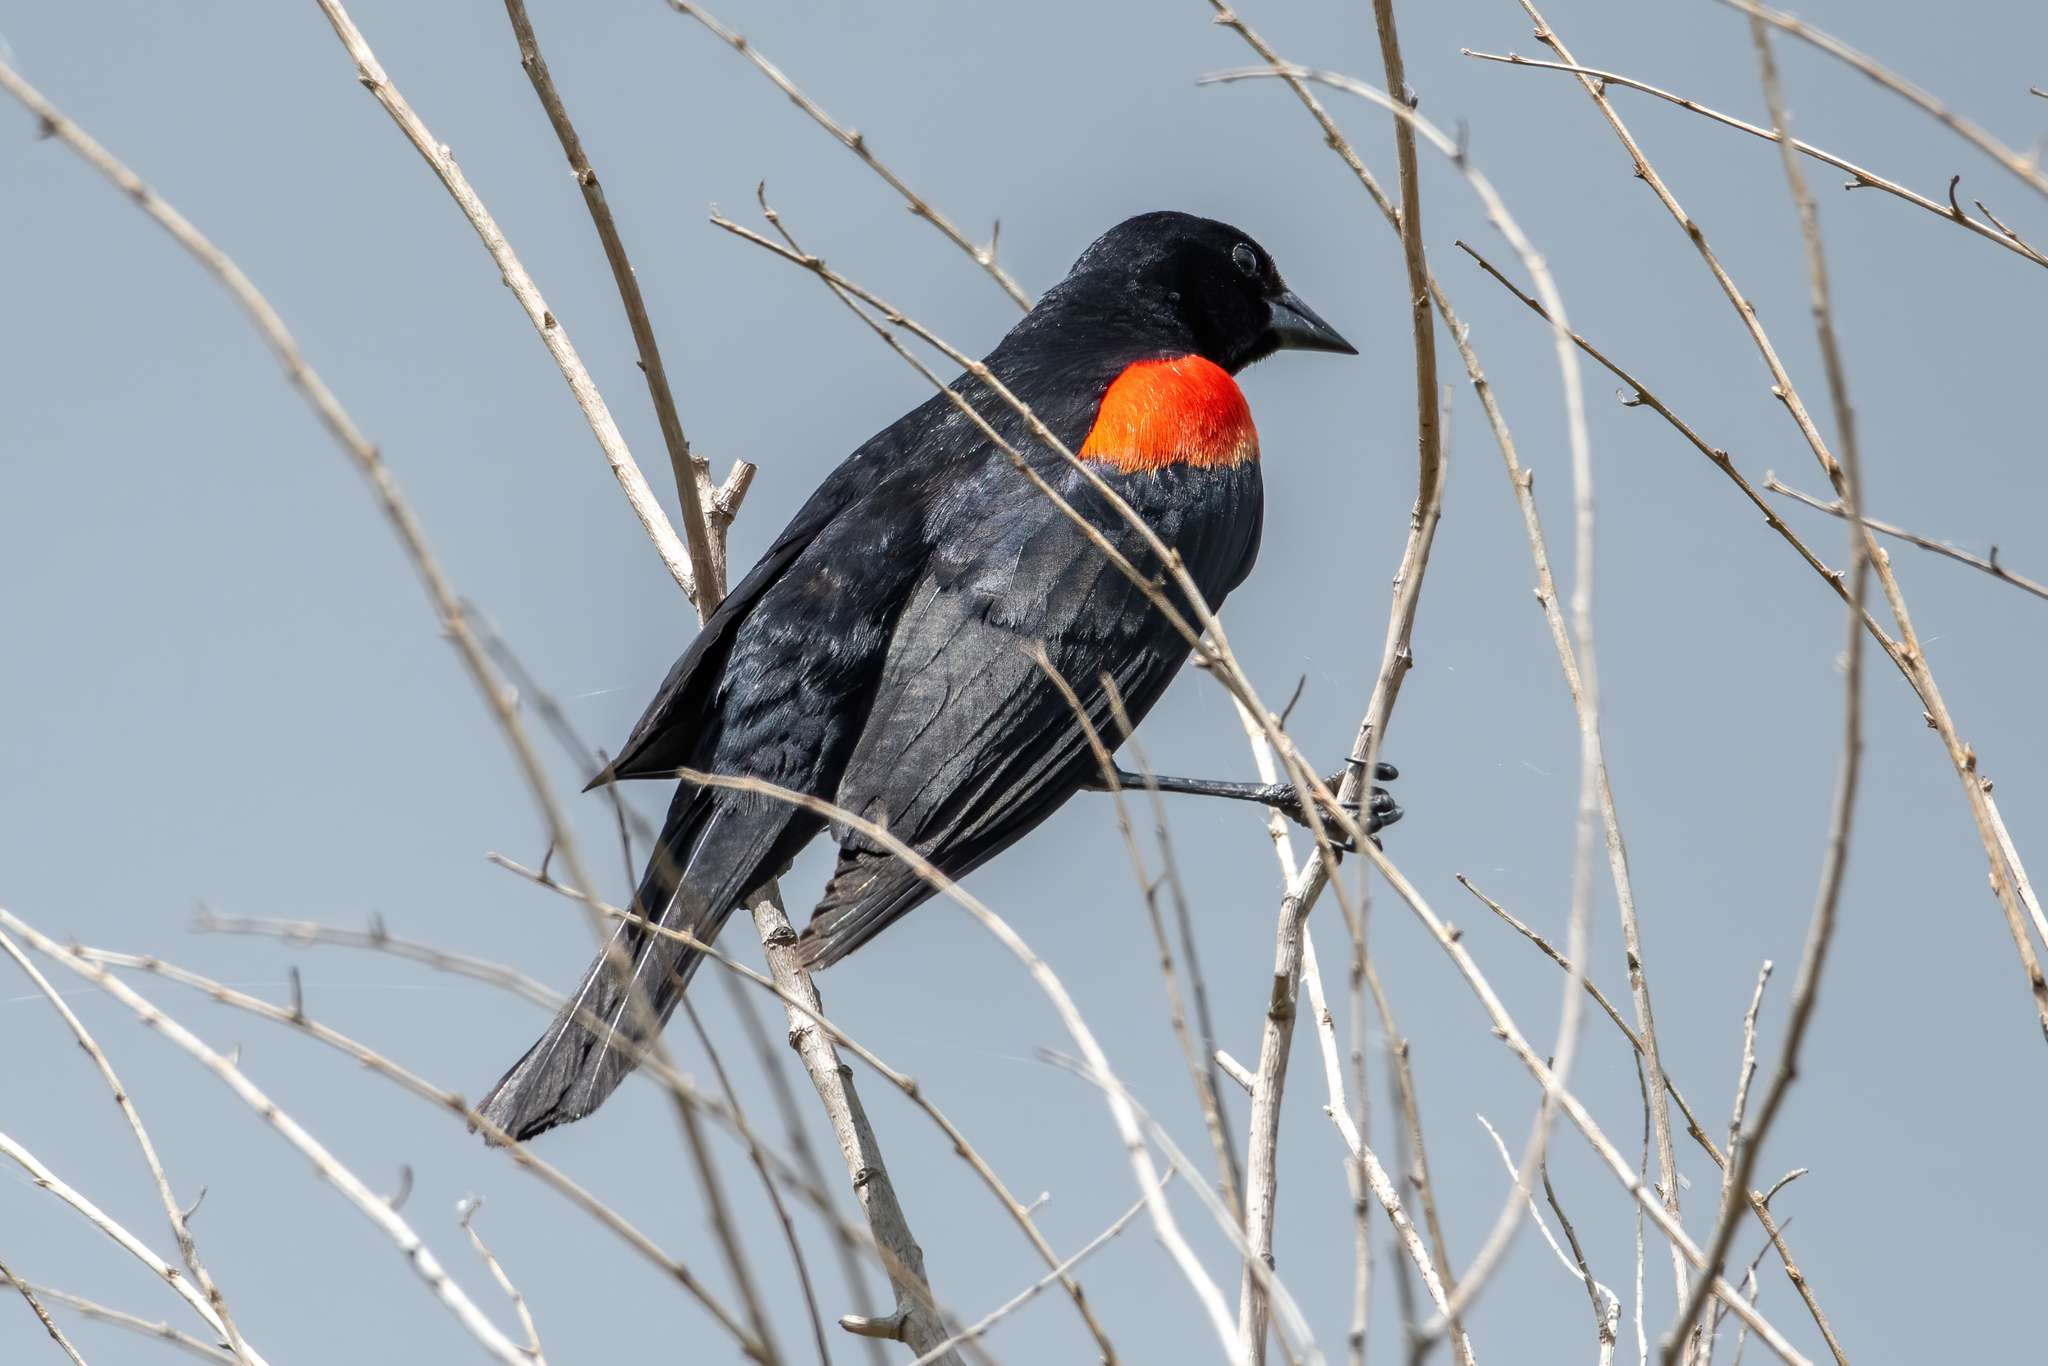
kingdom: Animalia
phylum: Chordata
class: Aves
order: Passeriformes
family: Icteridae
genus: Agelaius
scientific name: Agelaius phoeniceus
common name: Red-winged blackbird
